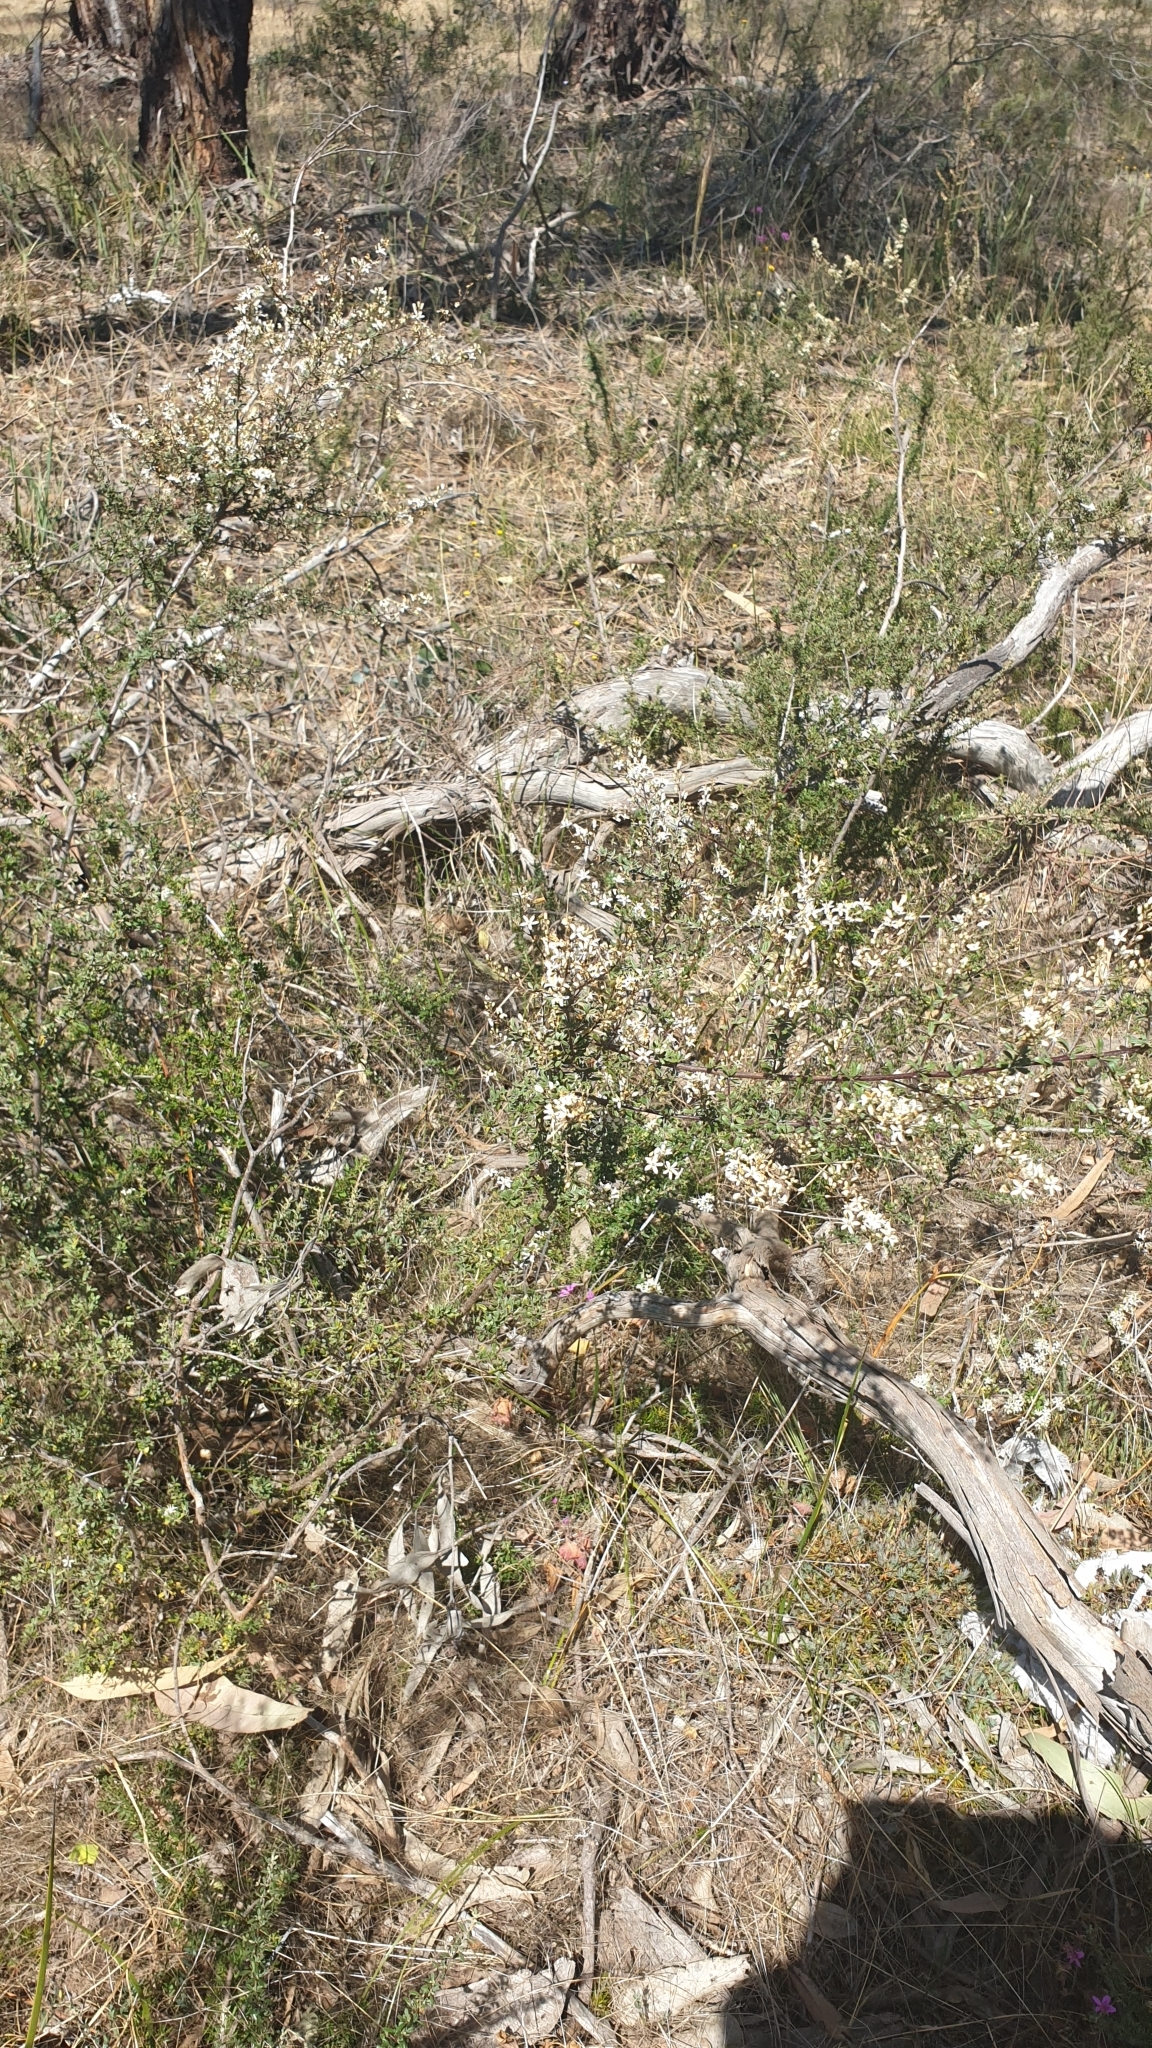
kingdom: Plantae
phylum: Tracheophyta
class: Magnoliopsida
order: Apiales
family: Pittosporaceae
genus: Bursaria
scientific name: Bursaria spinosa
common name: Australian blackthorn
